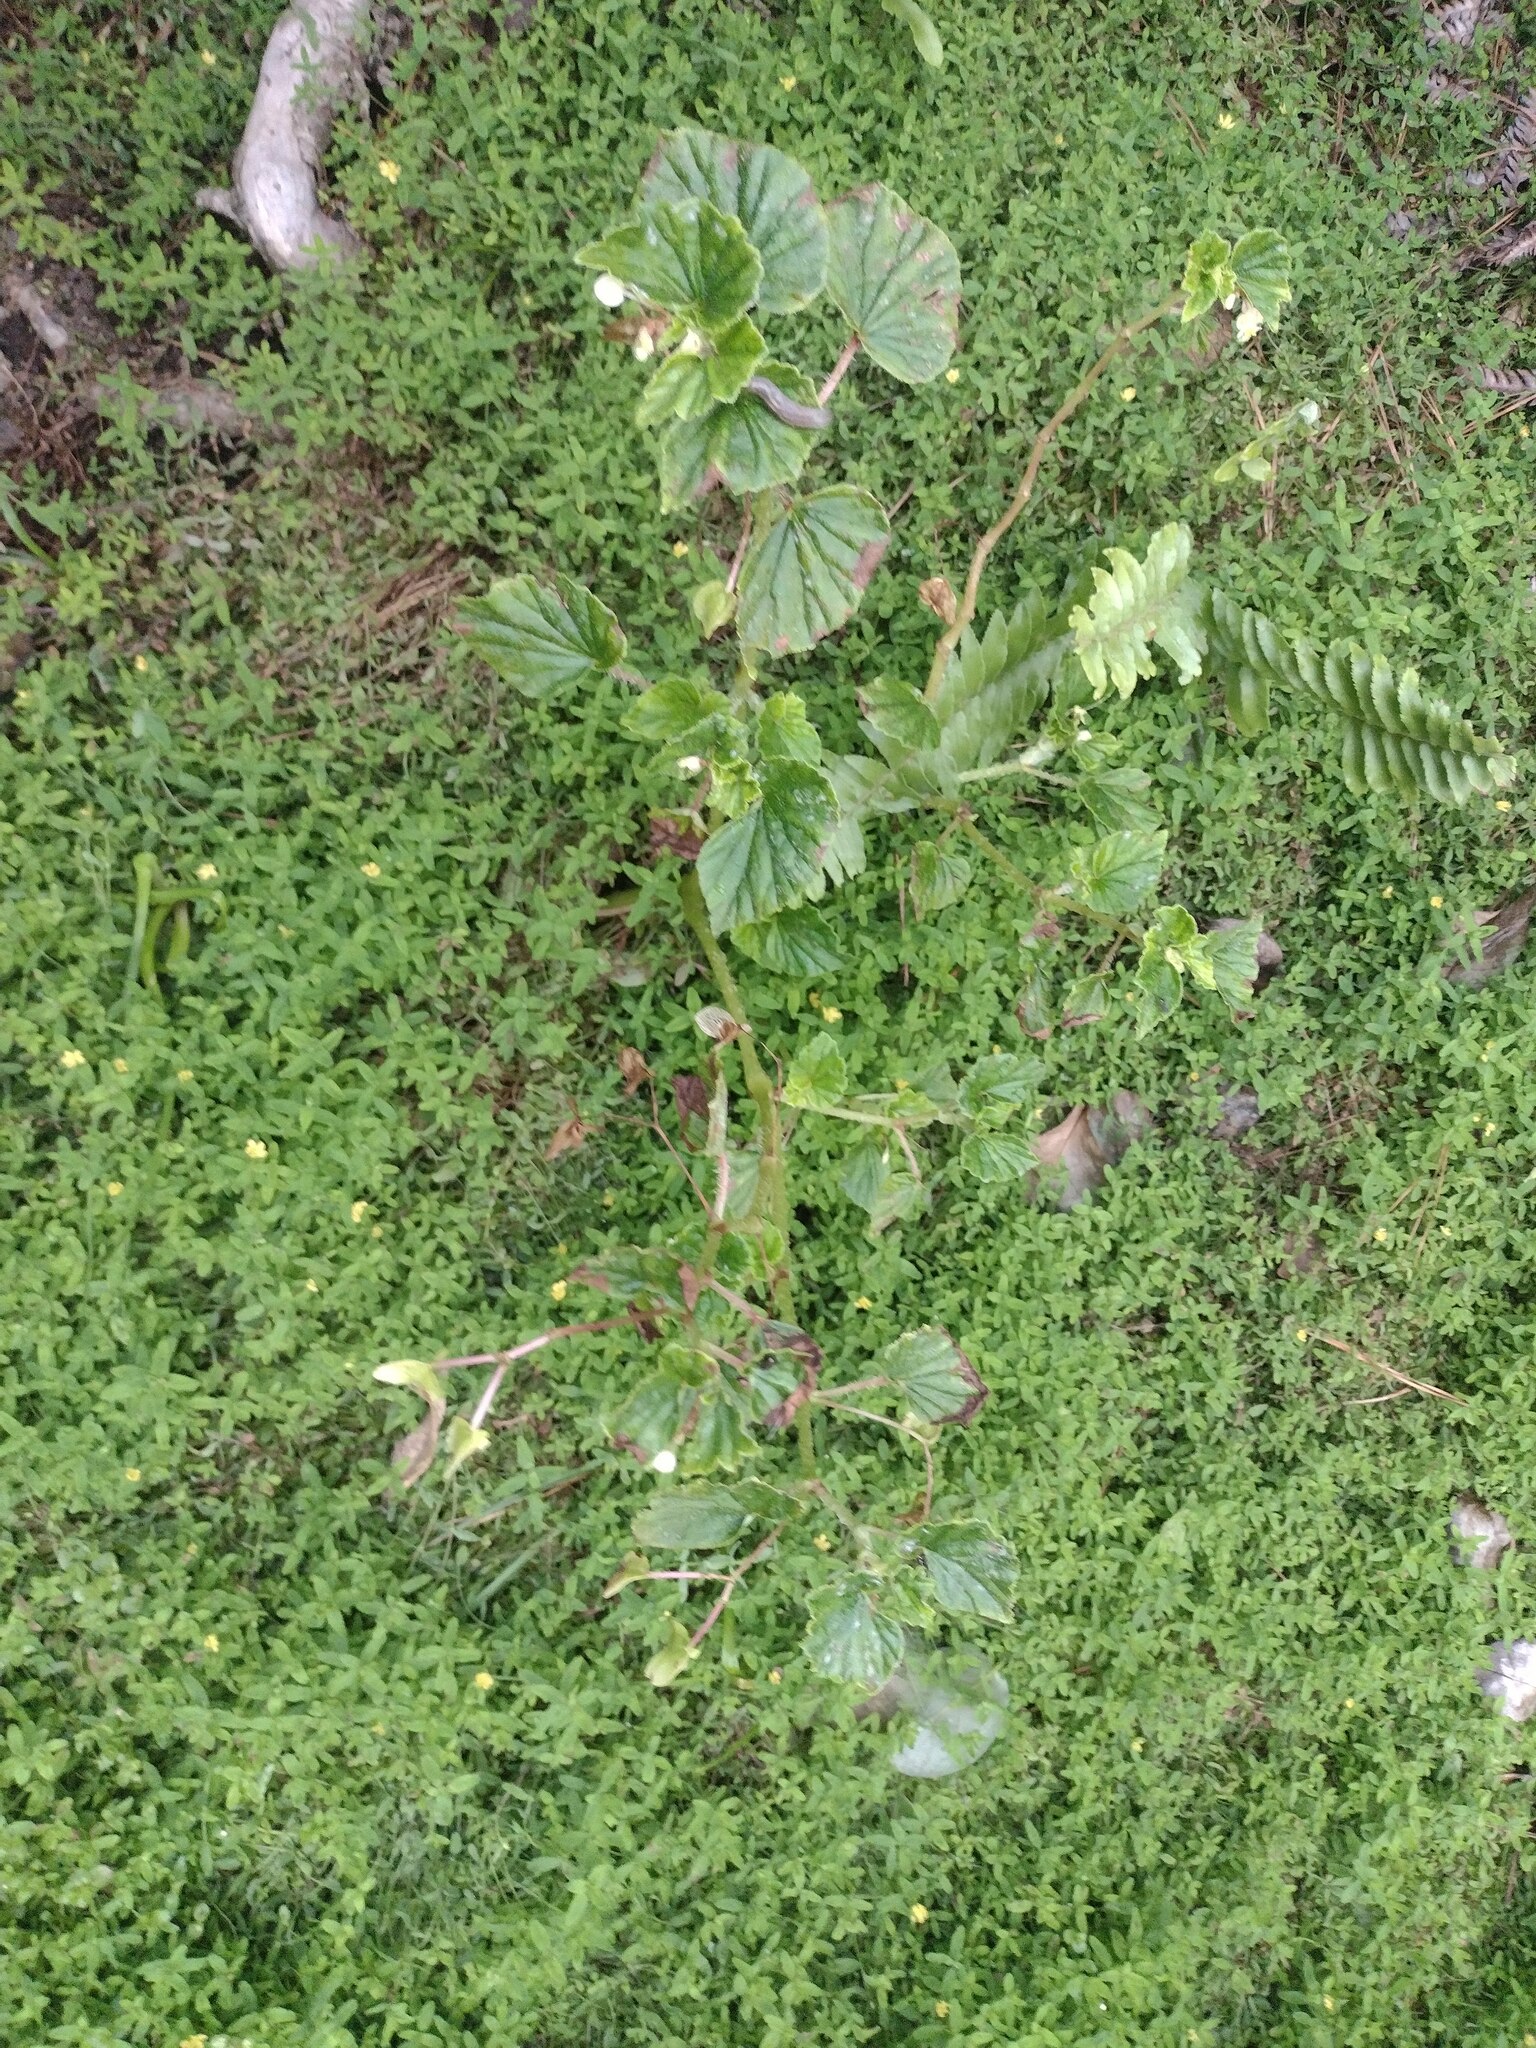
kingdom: Plantae
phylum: Tracheophyta
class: Magnoliopsida
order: Cucurbitales
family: Begoniaceae
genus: Begonia
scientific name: Begonia hirtella
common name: Brazilian begonia
